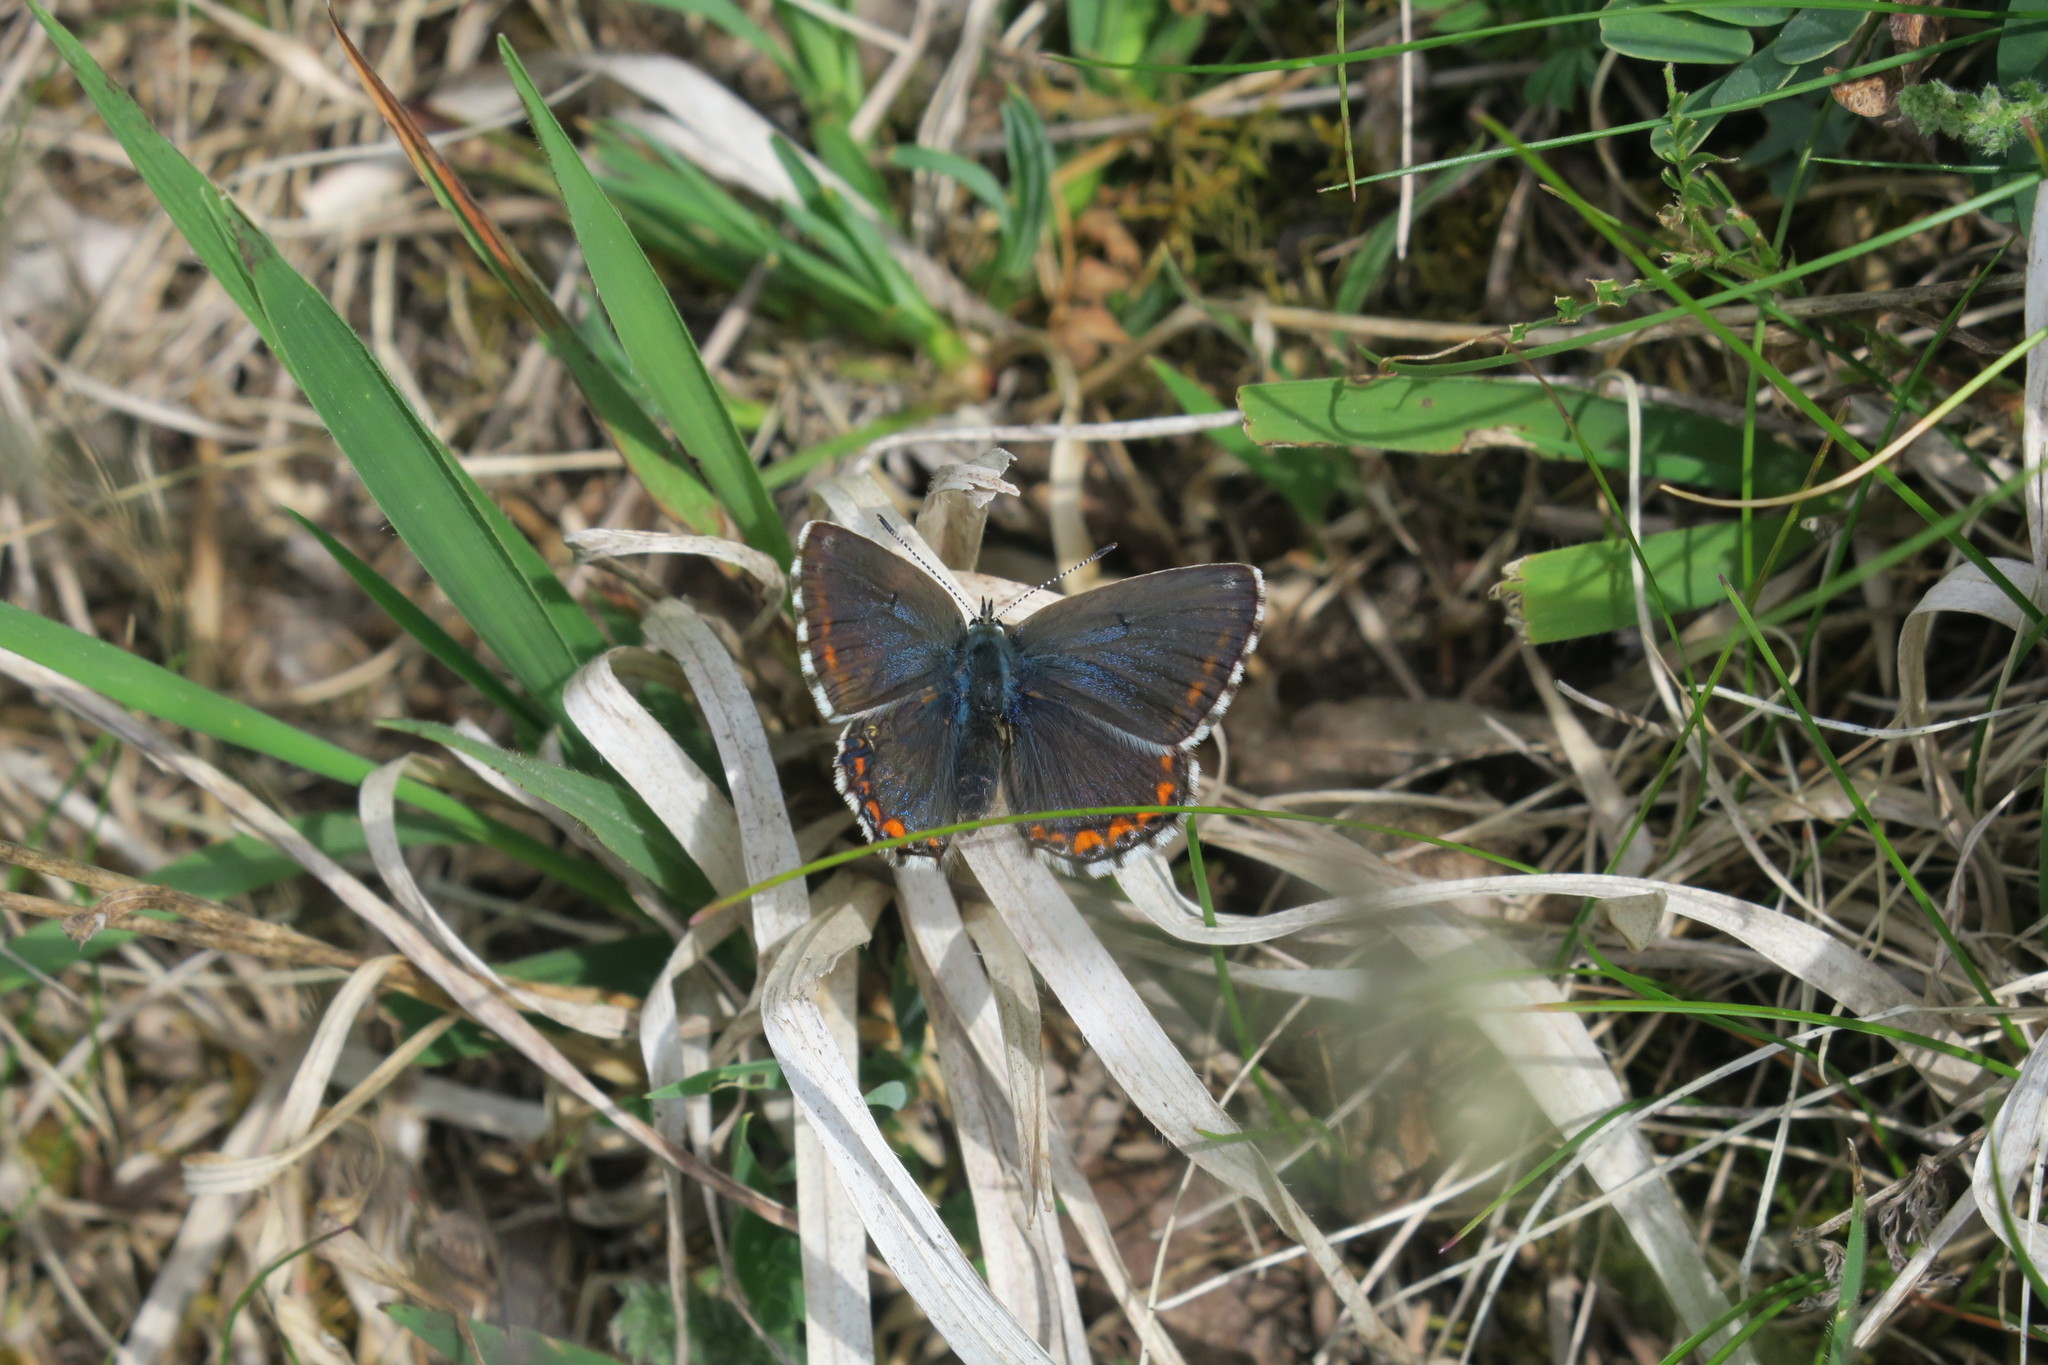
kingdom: Animalia
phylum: Arthropoda
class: Insecta
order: Lepidoptera
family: Lycaenidae
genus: Lysandra
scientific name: Lysandra bellargus
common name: Adonis blue
